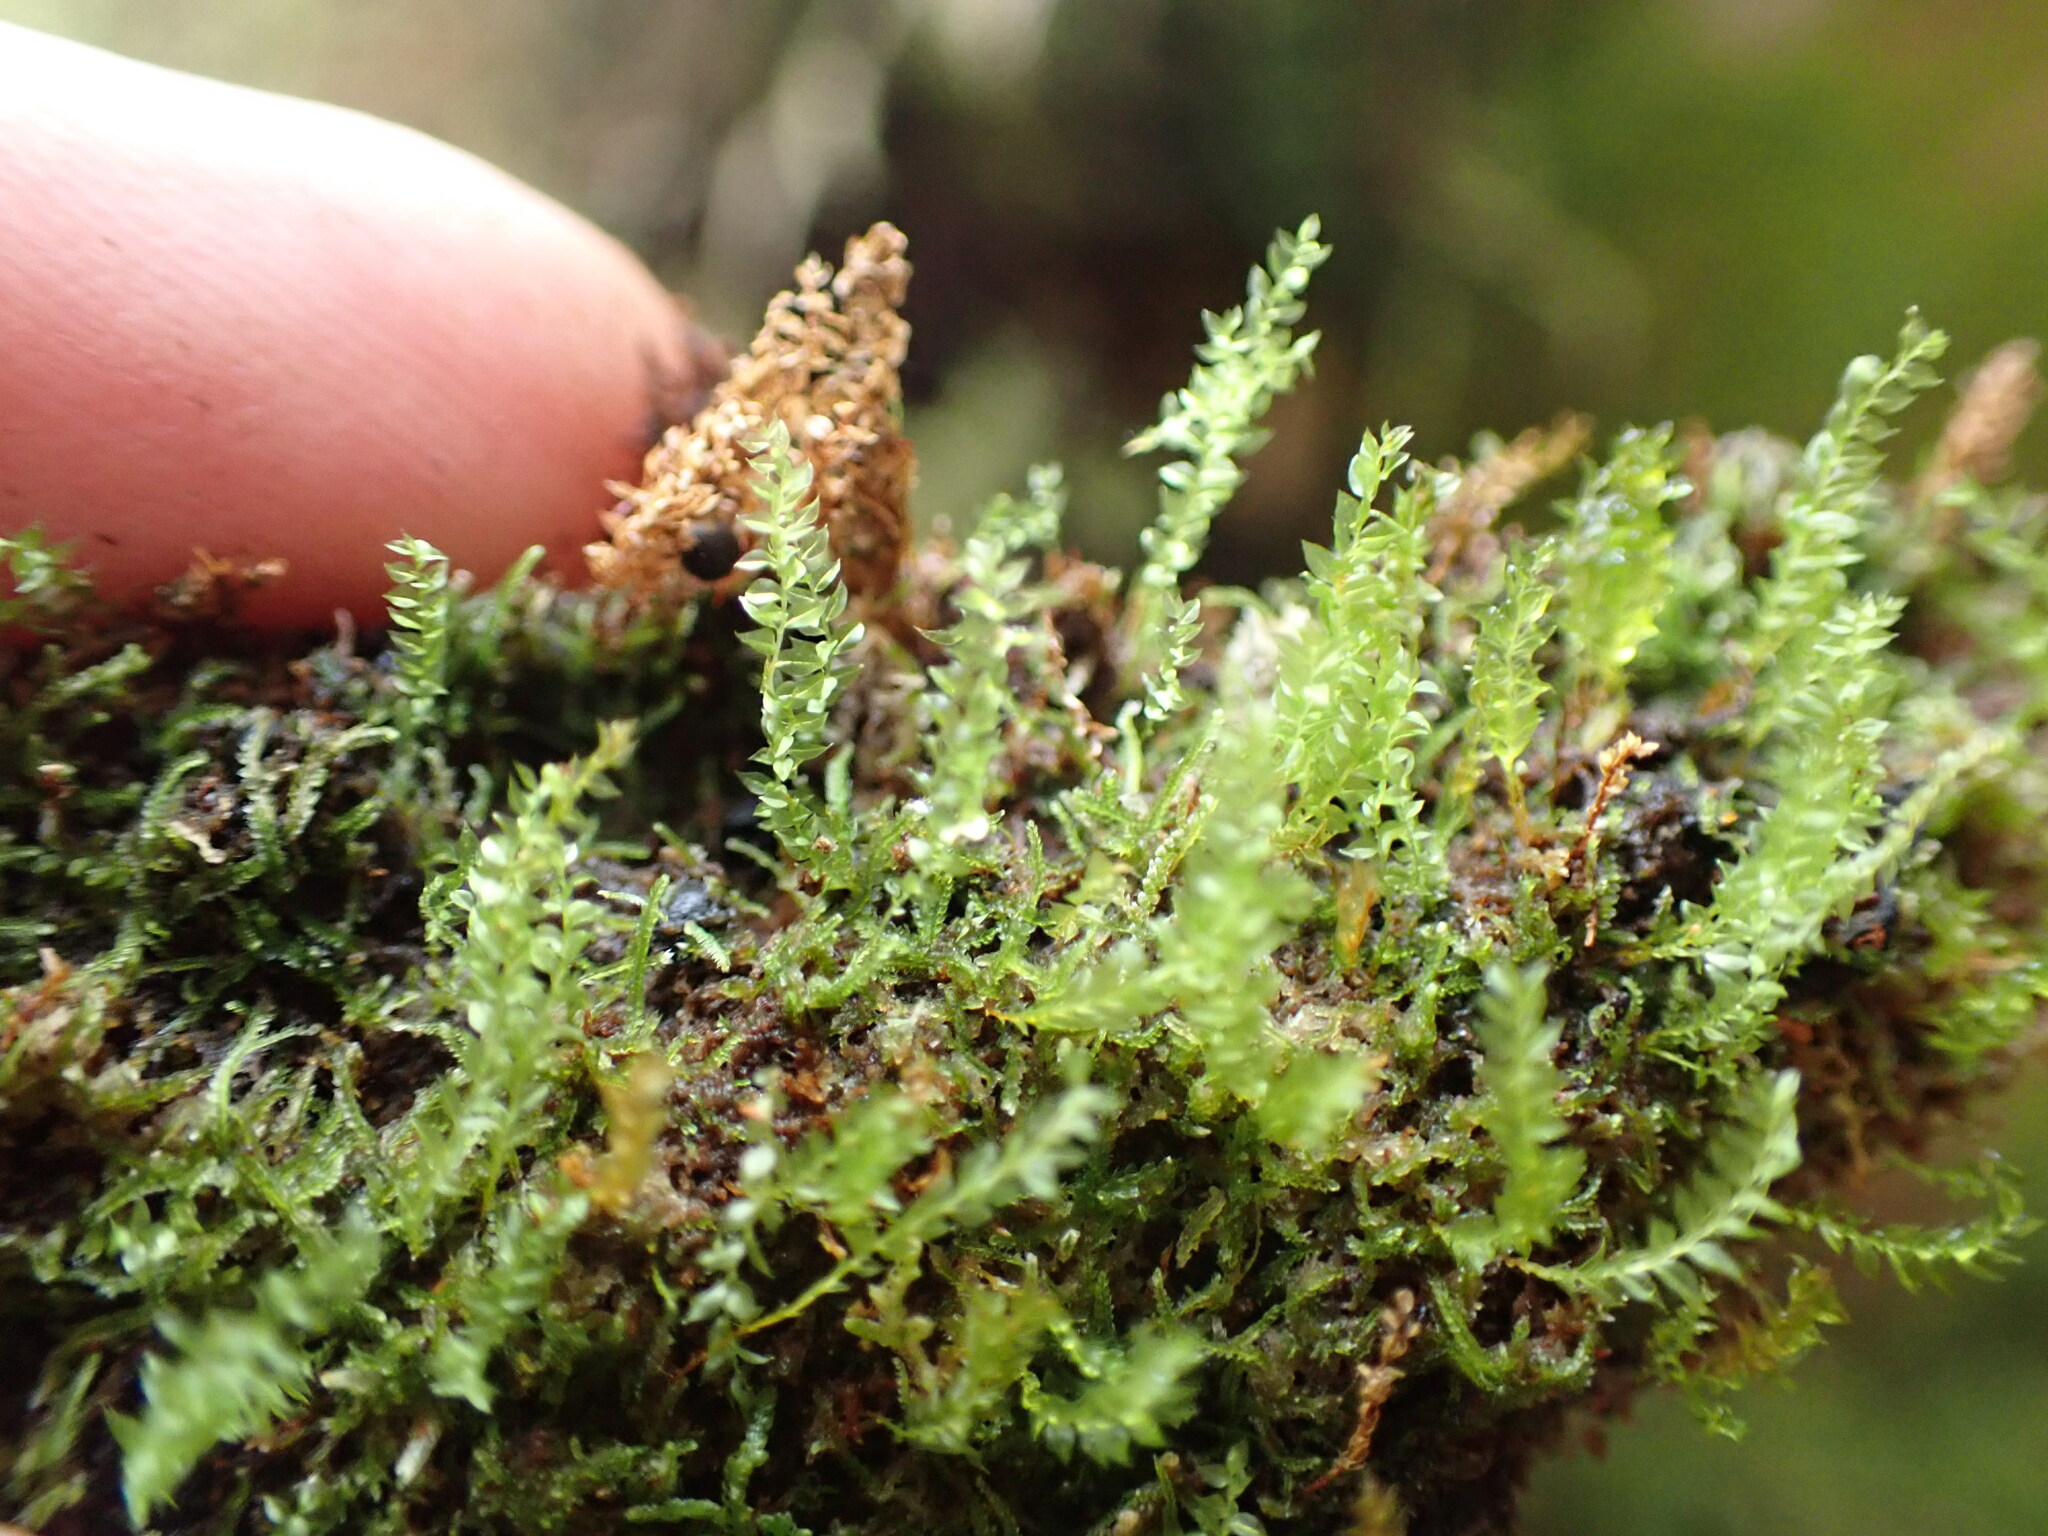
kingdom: Plantae
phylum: Bryophyta
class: Polytrichopsida
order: Tetraphidales
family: Tetraphidaceae
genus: Tetraphis
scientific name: Tetraphis pellucida
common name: Common four-toothed moss
